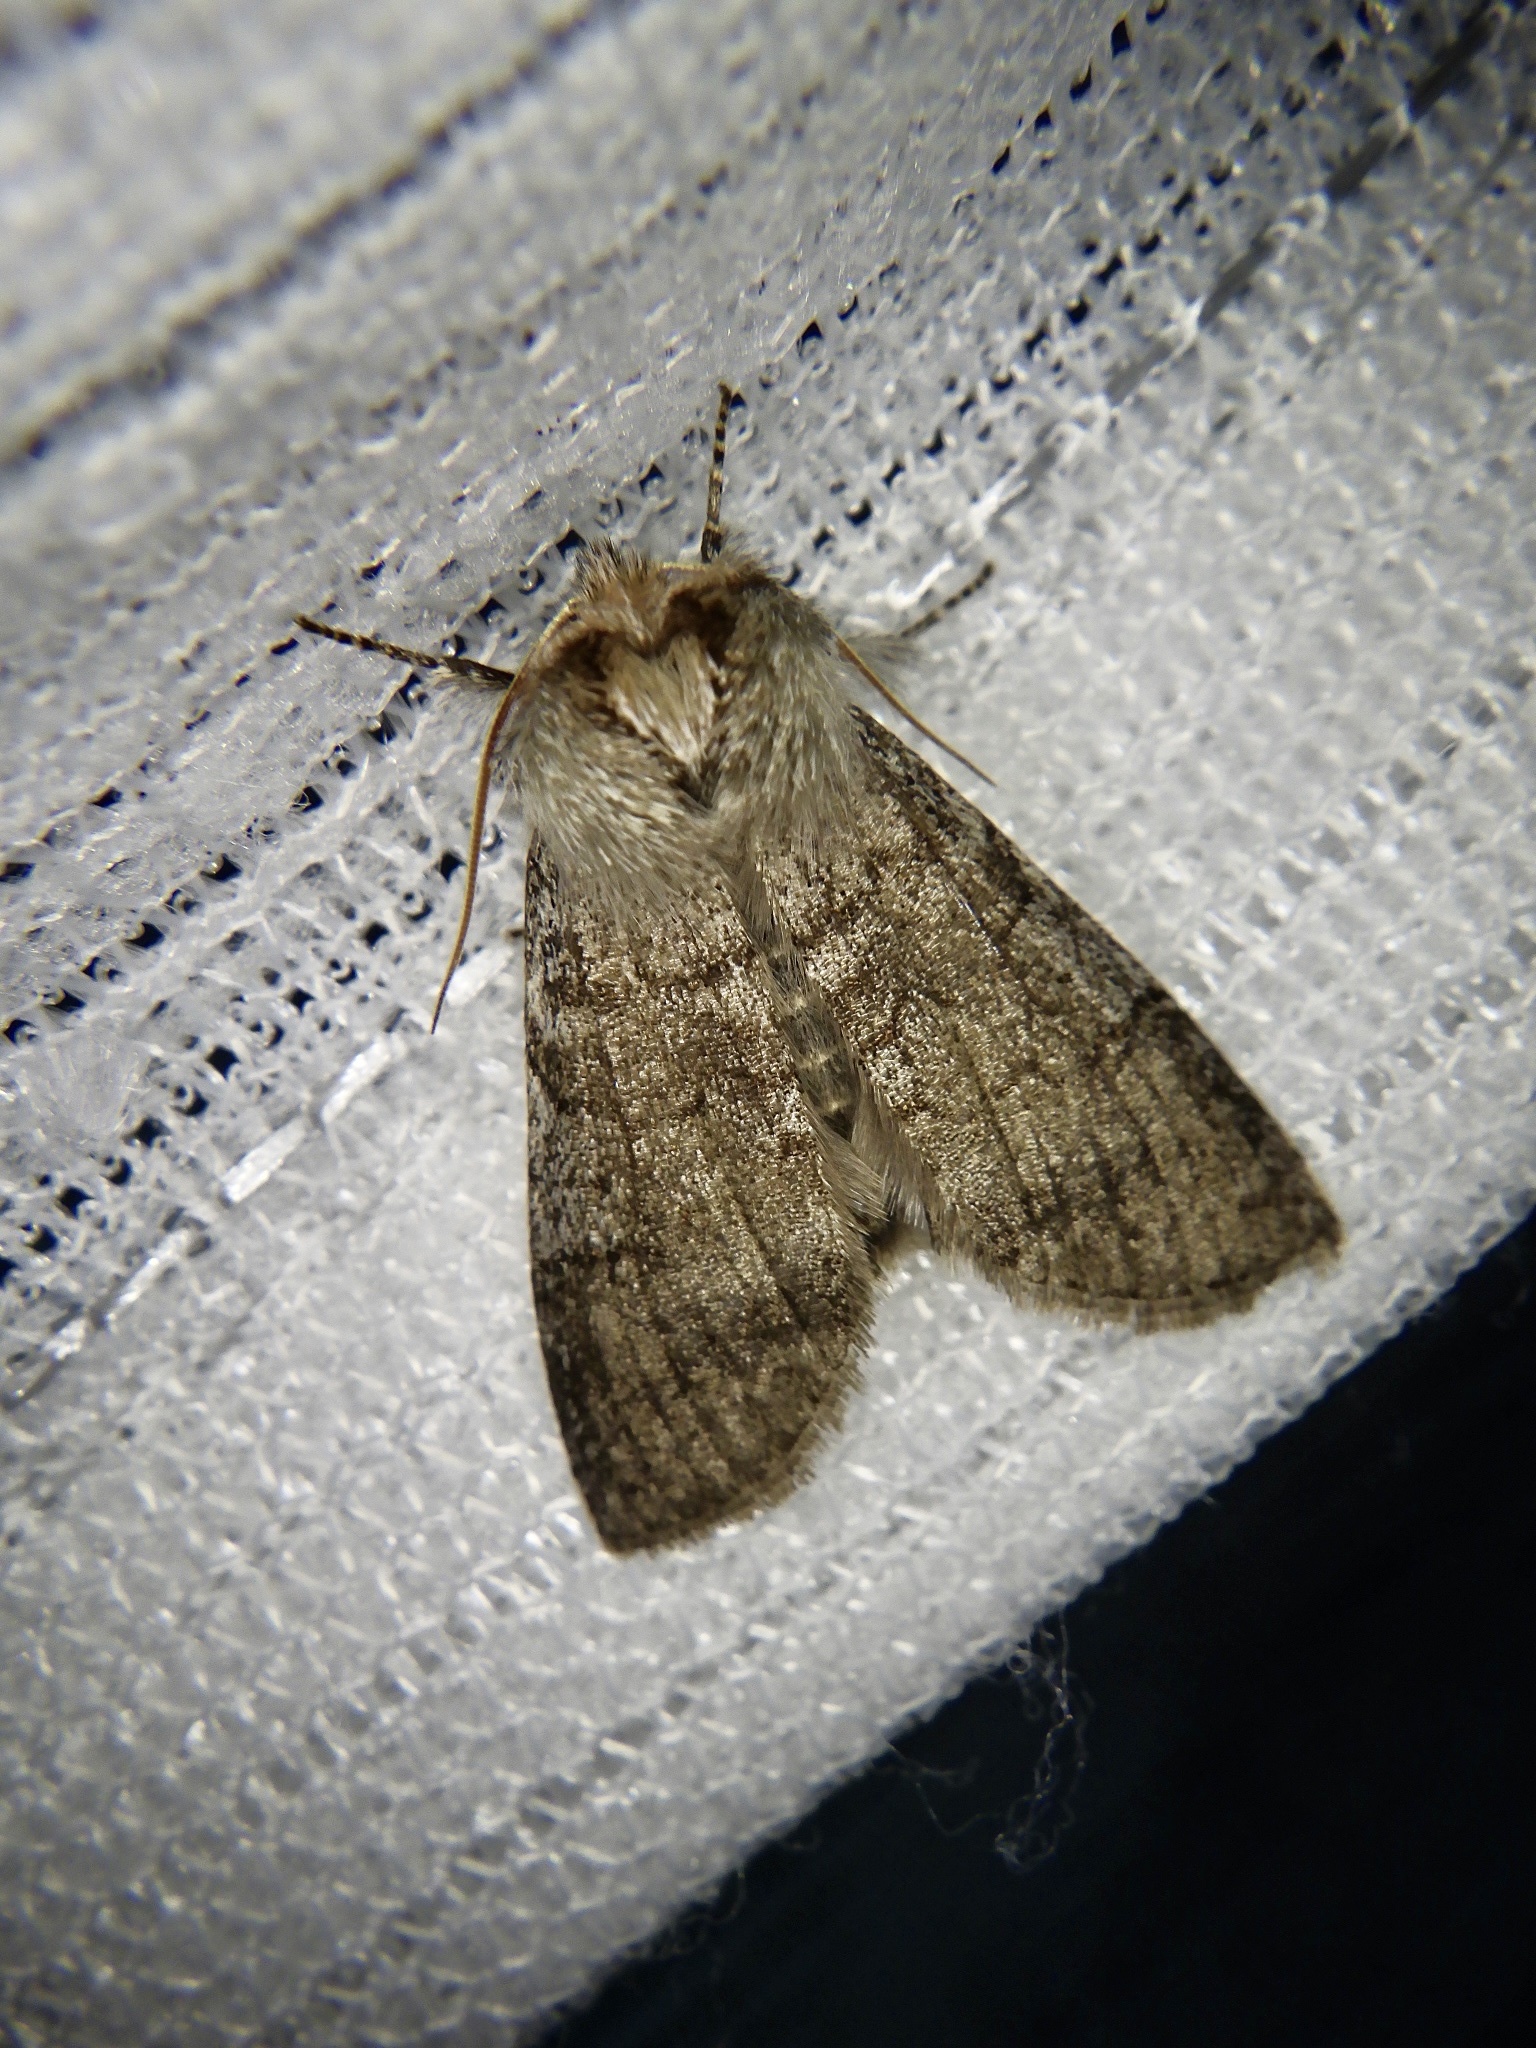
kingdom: Animalia
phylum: Arthropoda
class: Insecta
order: Lepidoptera
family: Drepanidae
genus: Achlya
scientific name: Achlya kuramana
